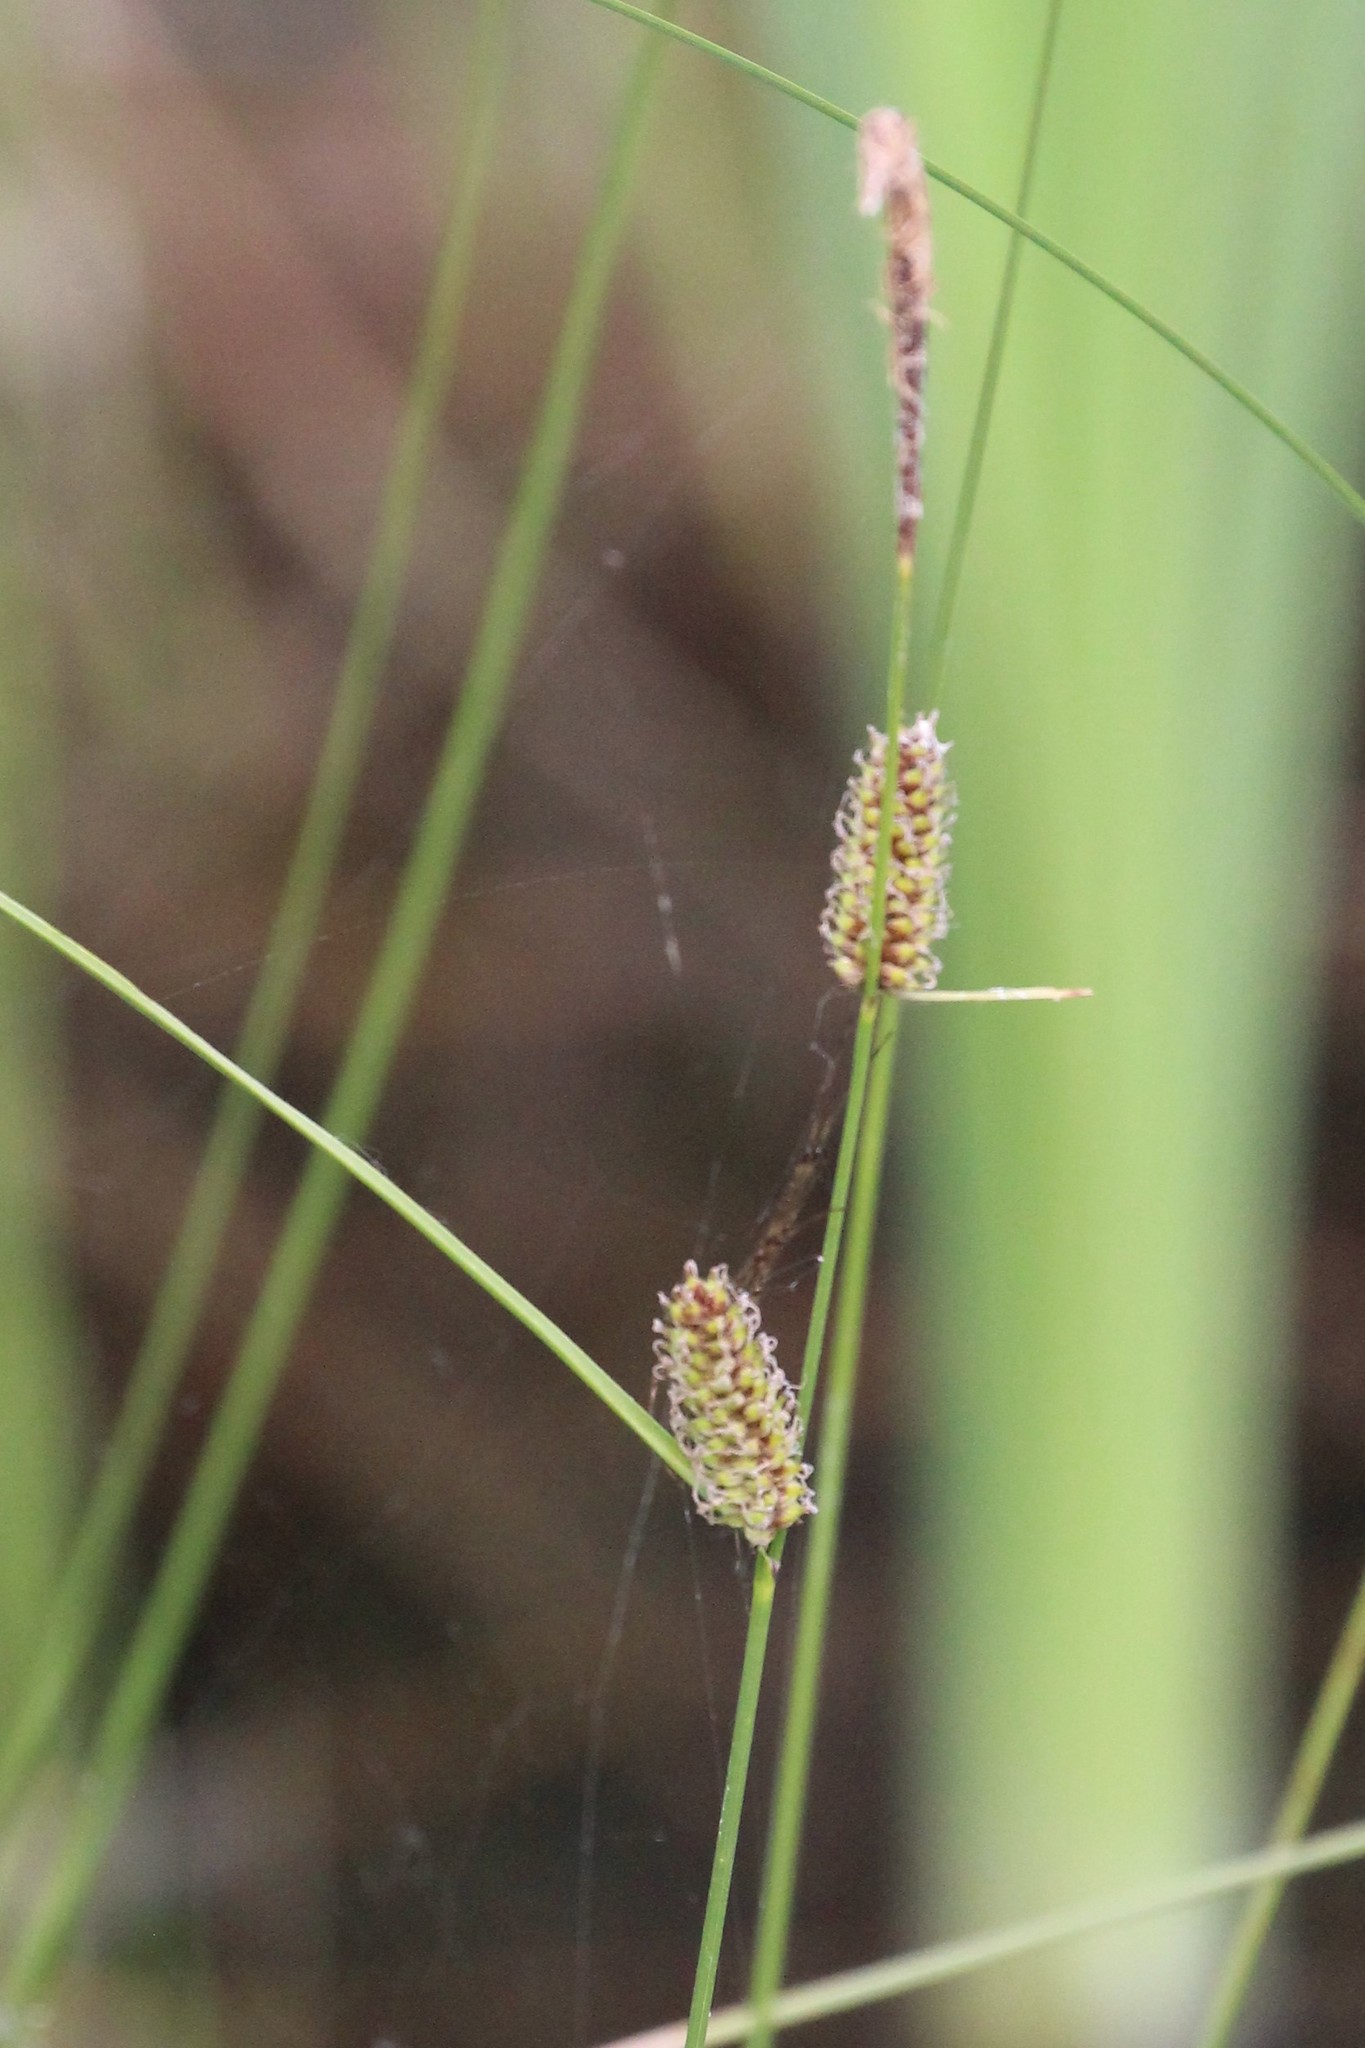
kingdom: Plantae
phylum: Tracheophyta
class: Liliopsida
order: Poales
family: Cyperaceae
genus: Carex
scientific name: Carex lasiocarpa
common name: Slender sedge
